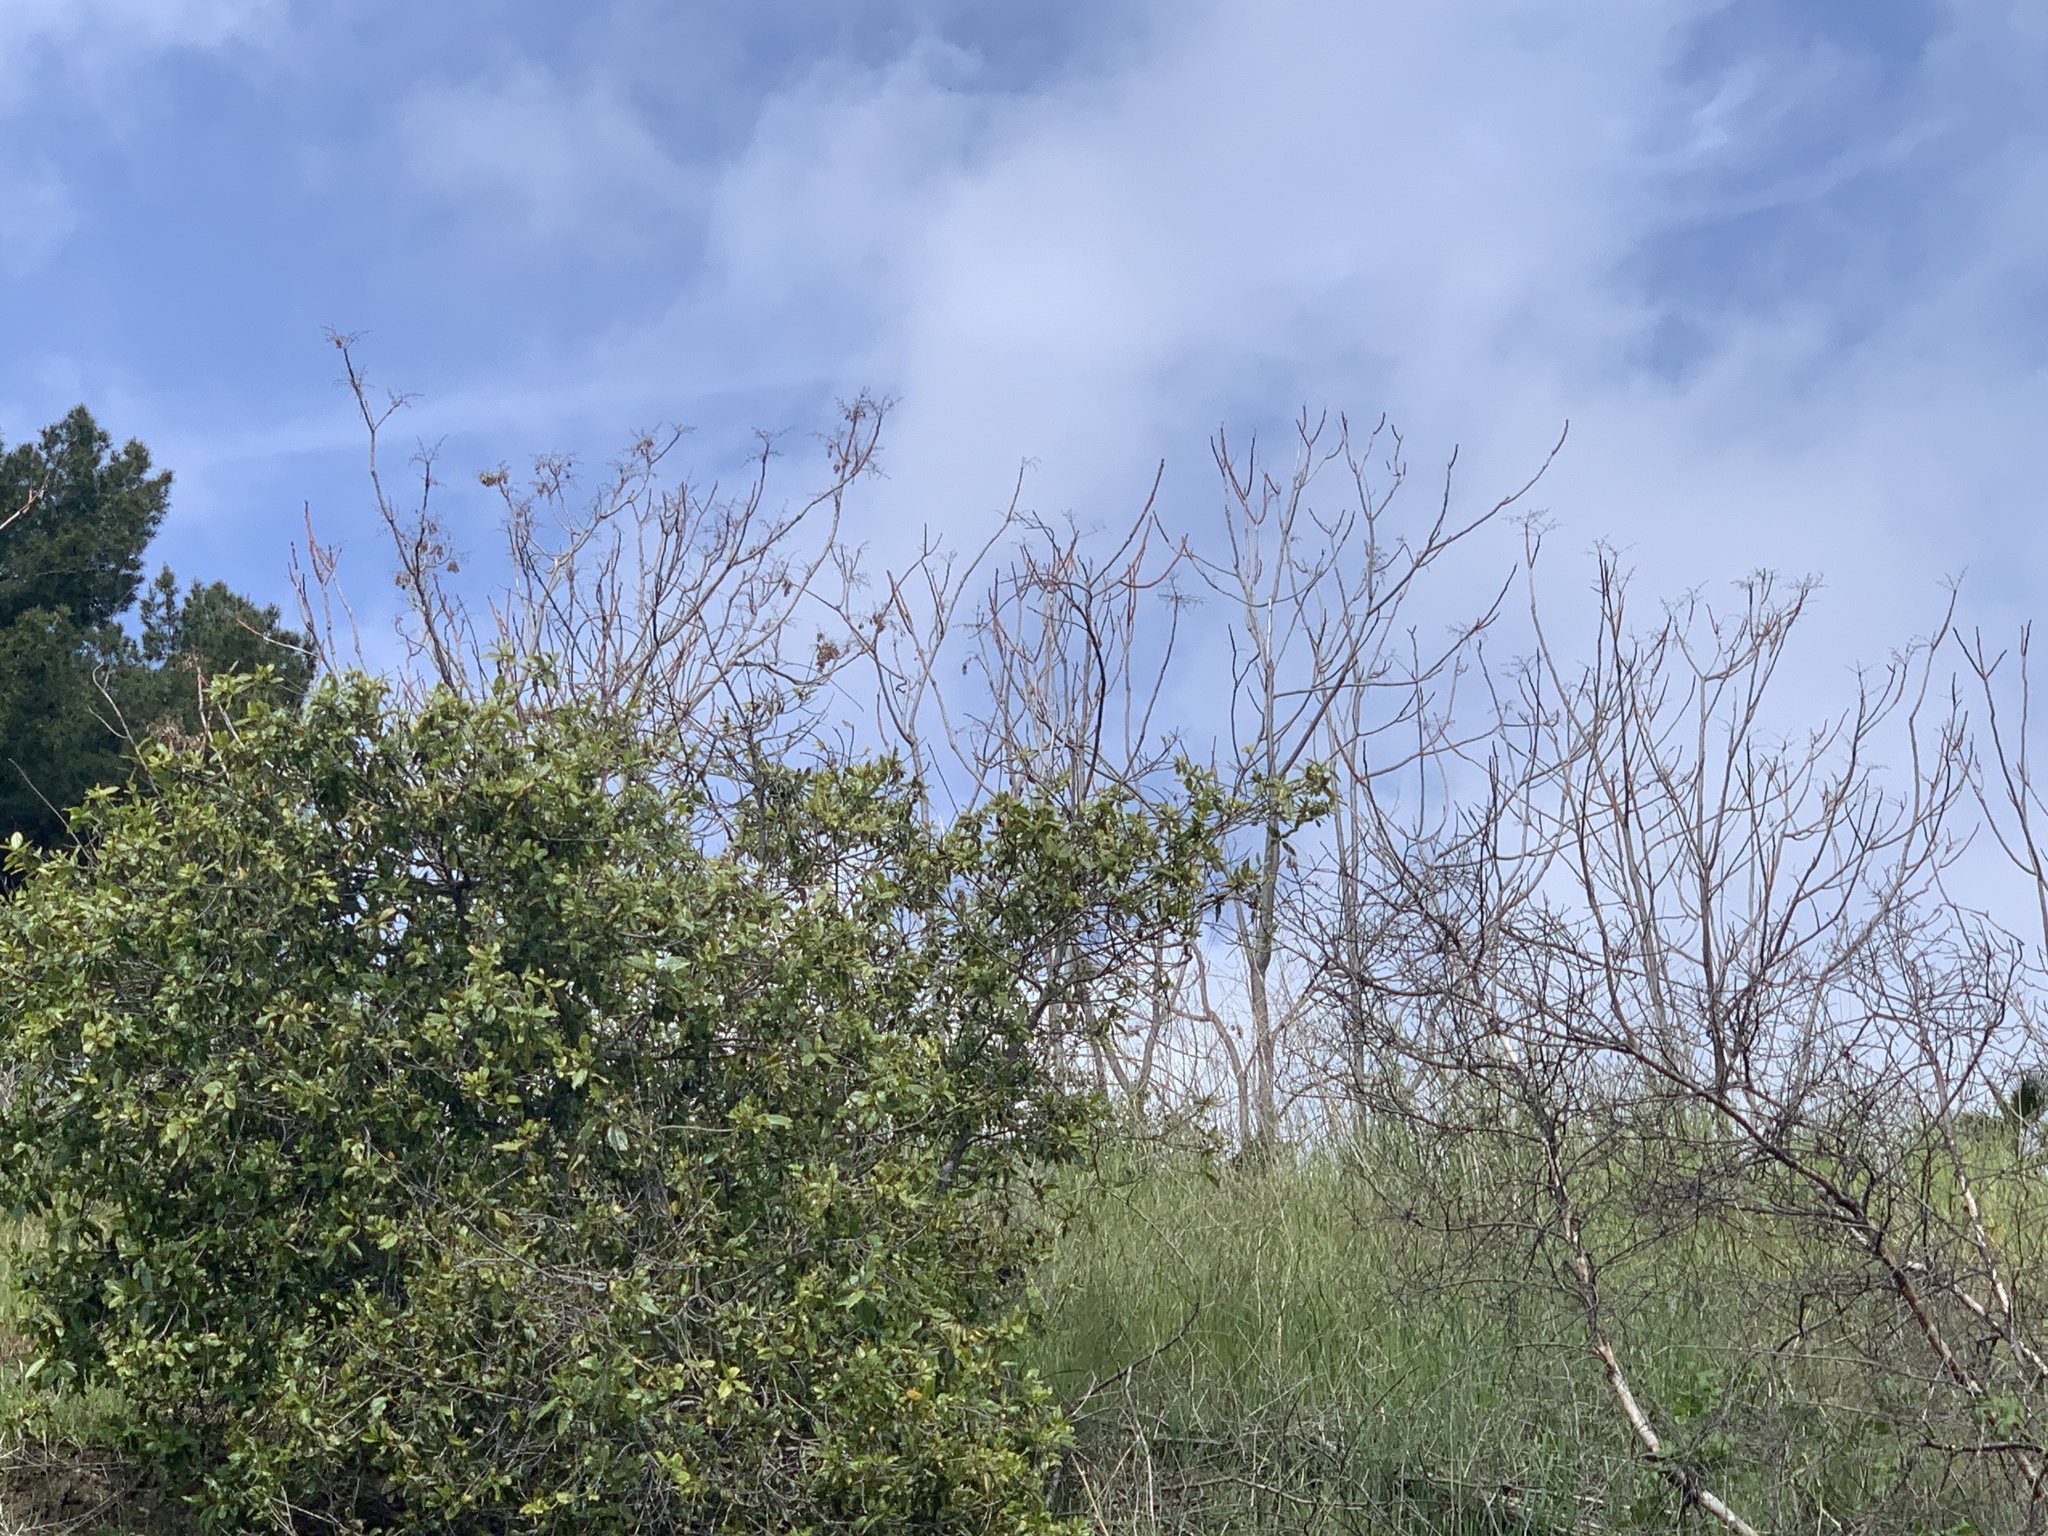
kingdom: Plantae
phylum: Tracheophyta
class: Magnoliopsida
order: Sapindales
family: Simaroubaceae
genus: Ailanthus
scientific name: Ailanthus altissima
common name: Tree-of-heaven
